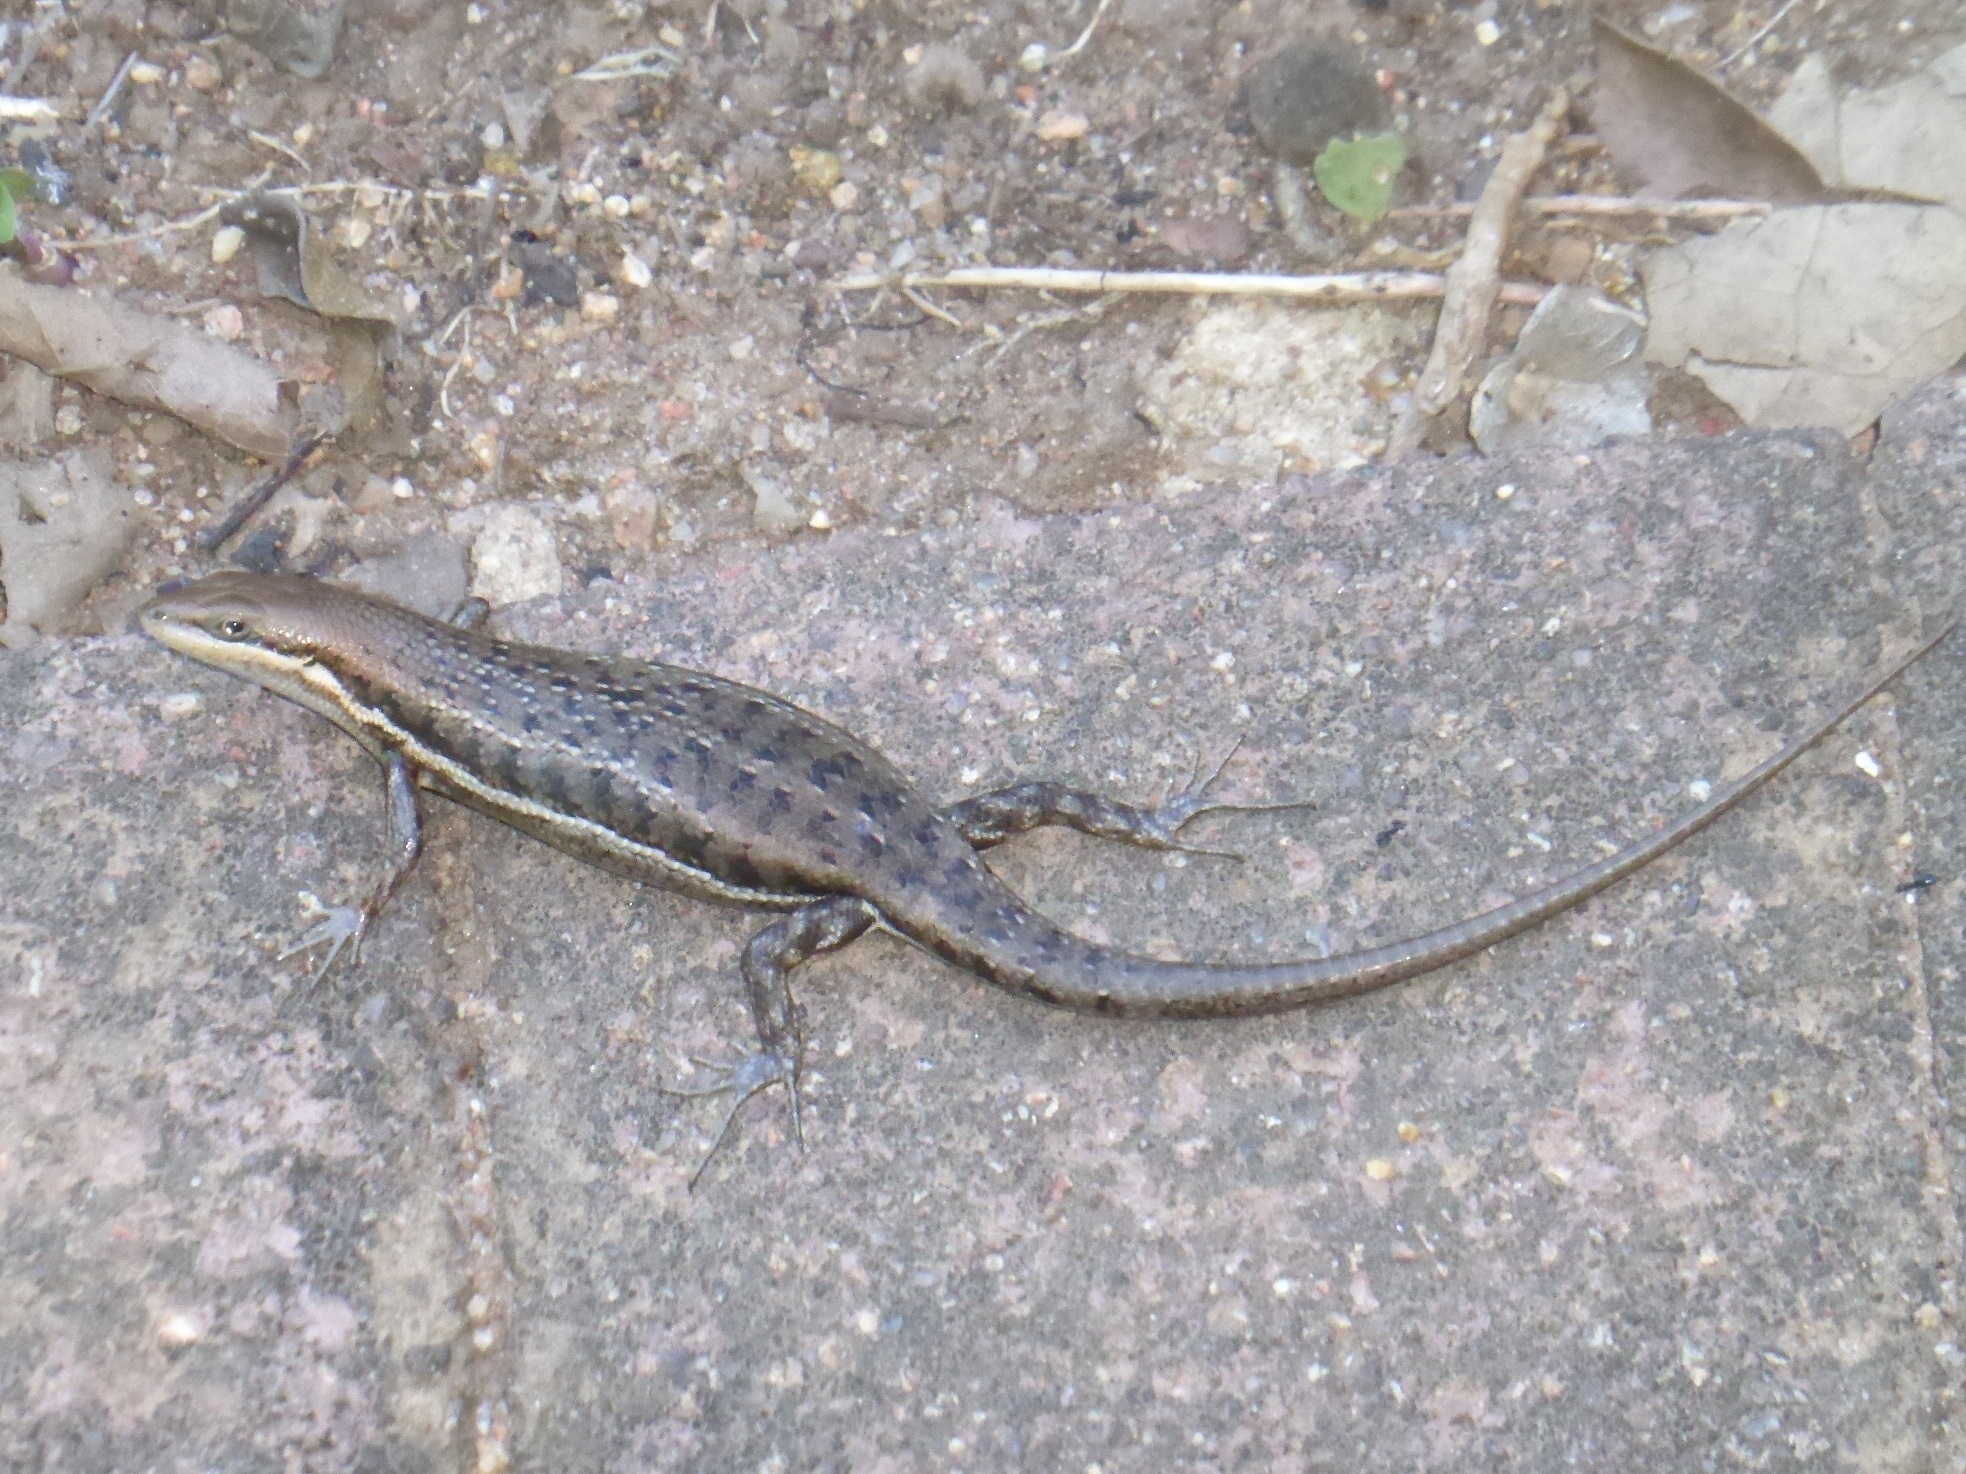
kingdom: Animalia
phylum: Chordata
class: Squamata
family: Scincidae
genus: Trachylepis
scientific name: Trachylepis varia
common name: Eastern variable skink
